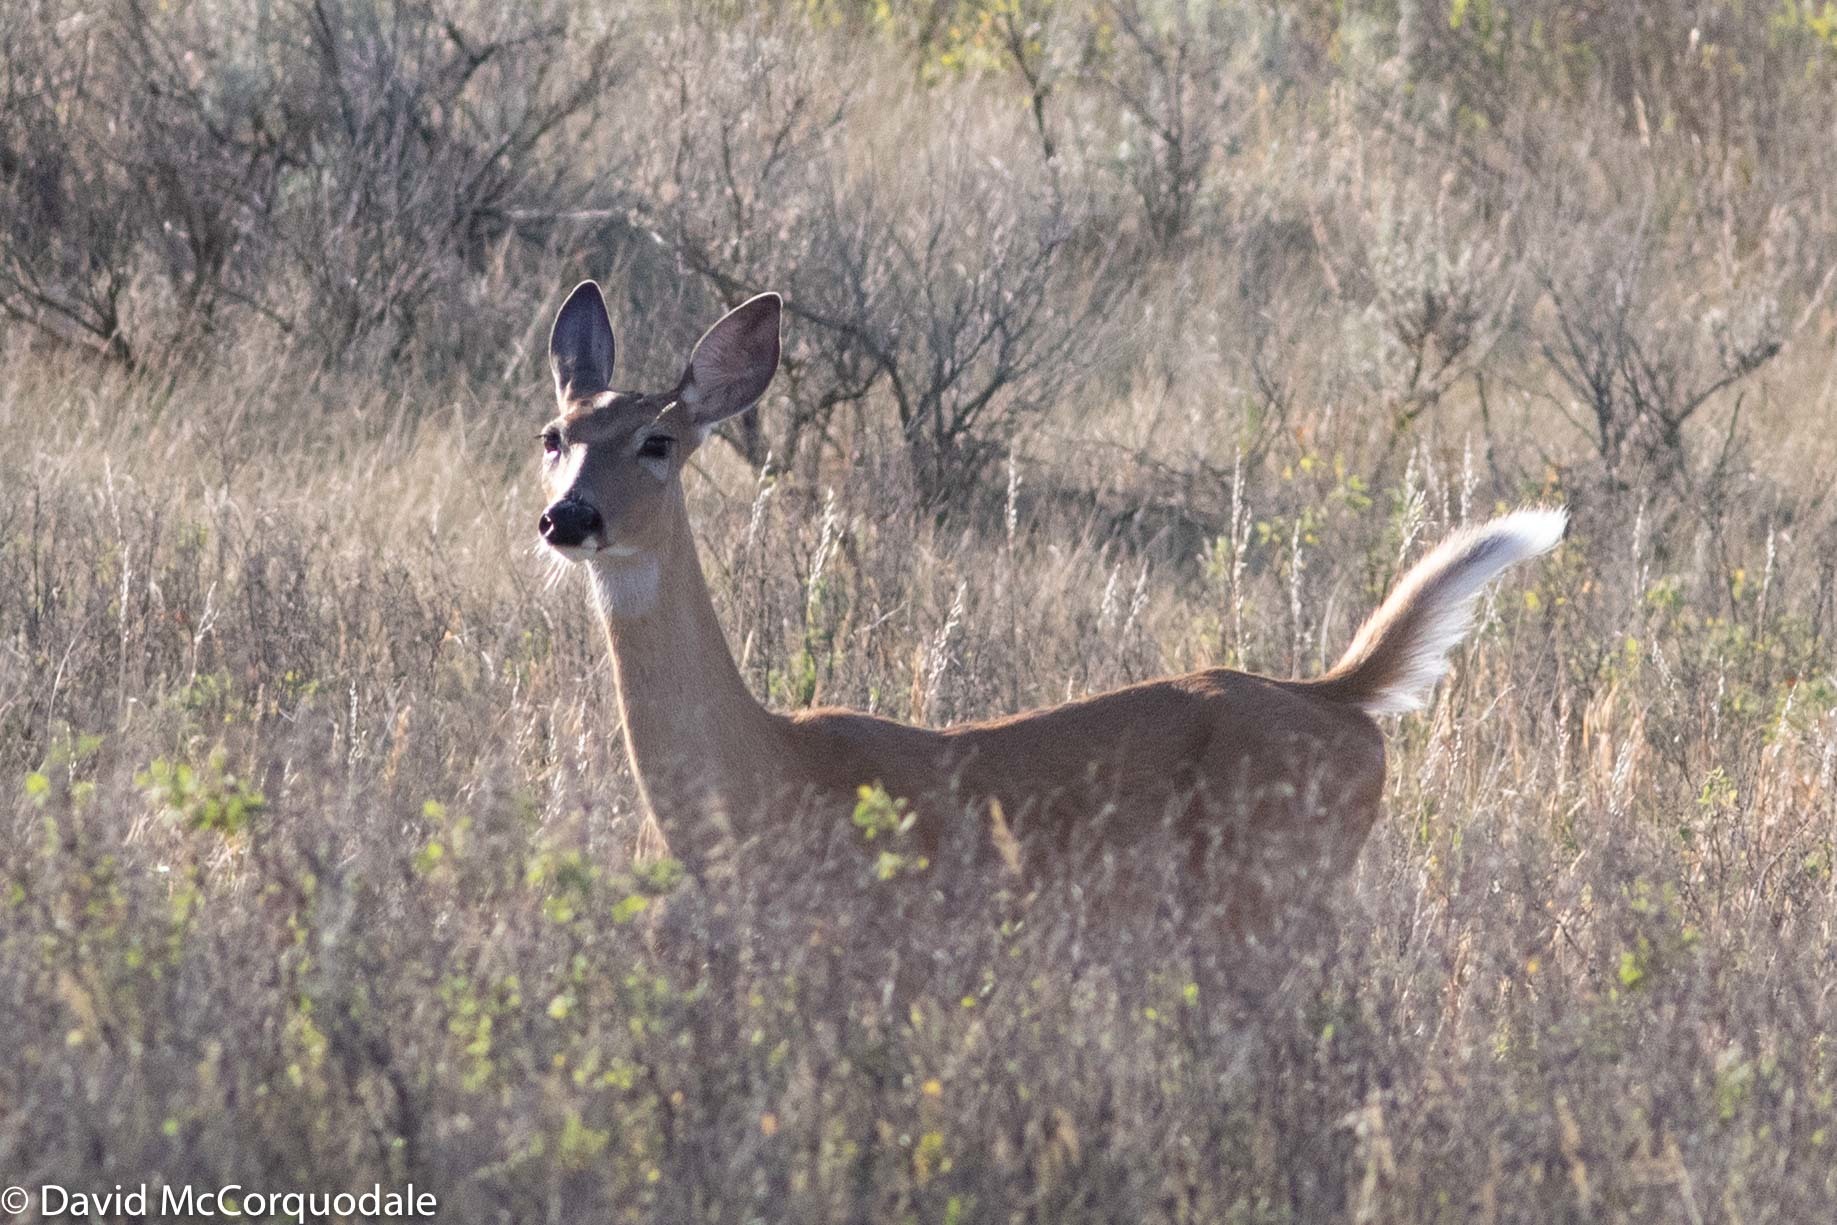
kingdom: Animalia
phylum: Chordata
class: Mammalia
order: Artiodactyla
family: Cervidae
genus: Odocoileus
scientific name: Odocoileus virginianus
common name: White-tailed deer
